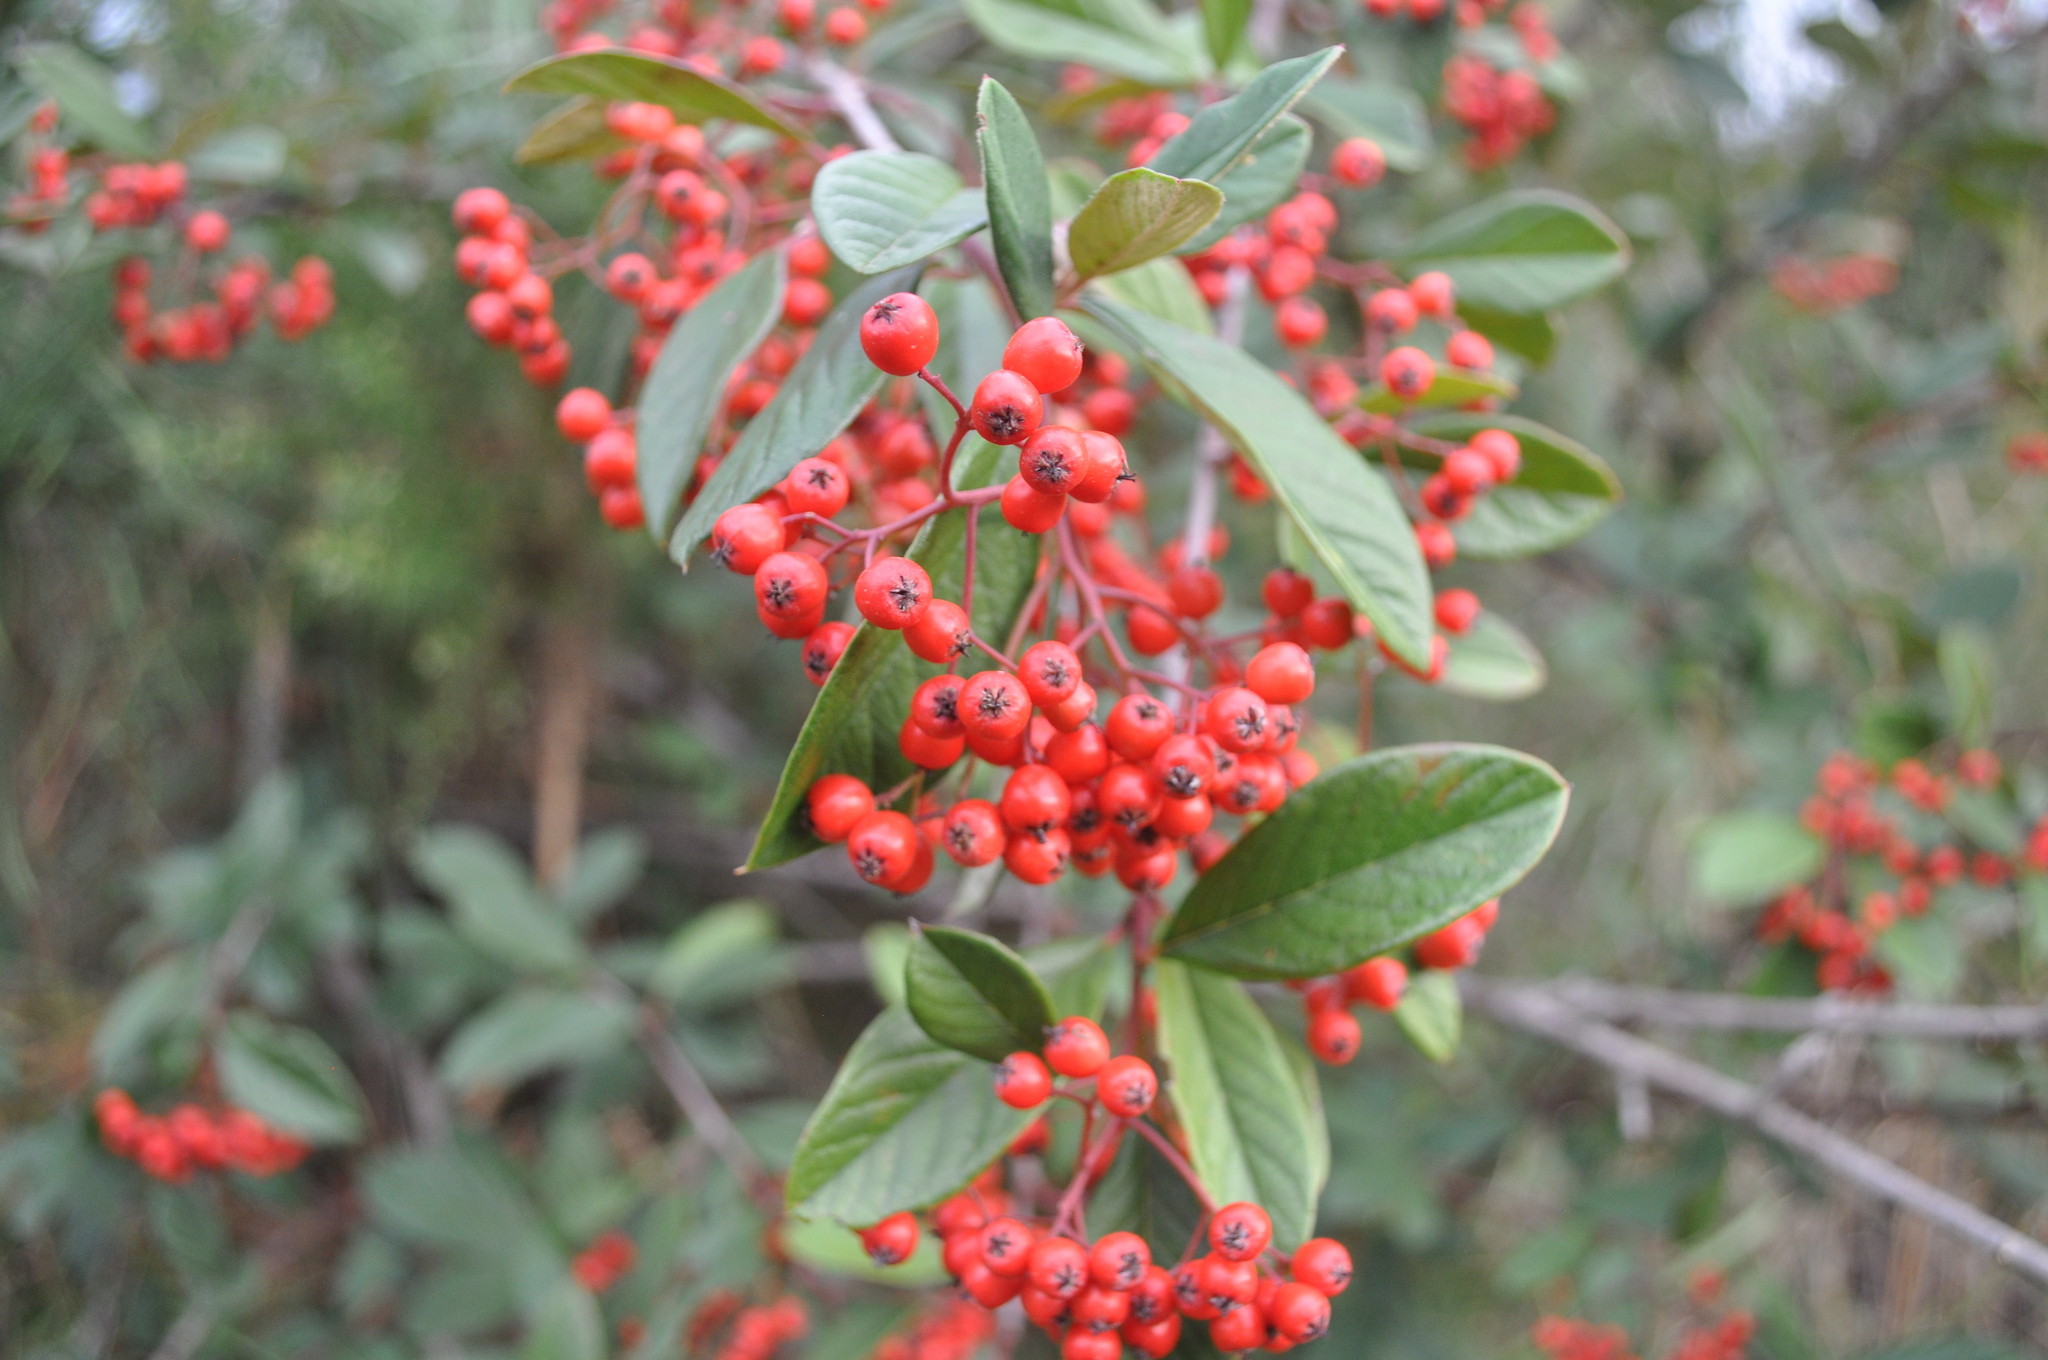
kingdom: Plantae
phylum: Tracheophyta
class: Magnoliopsida
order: Rosales
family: Rosaceae
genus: Cotoneaster
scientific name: Cotoneaster coriaceus
